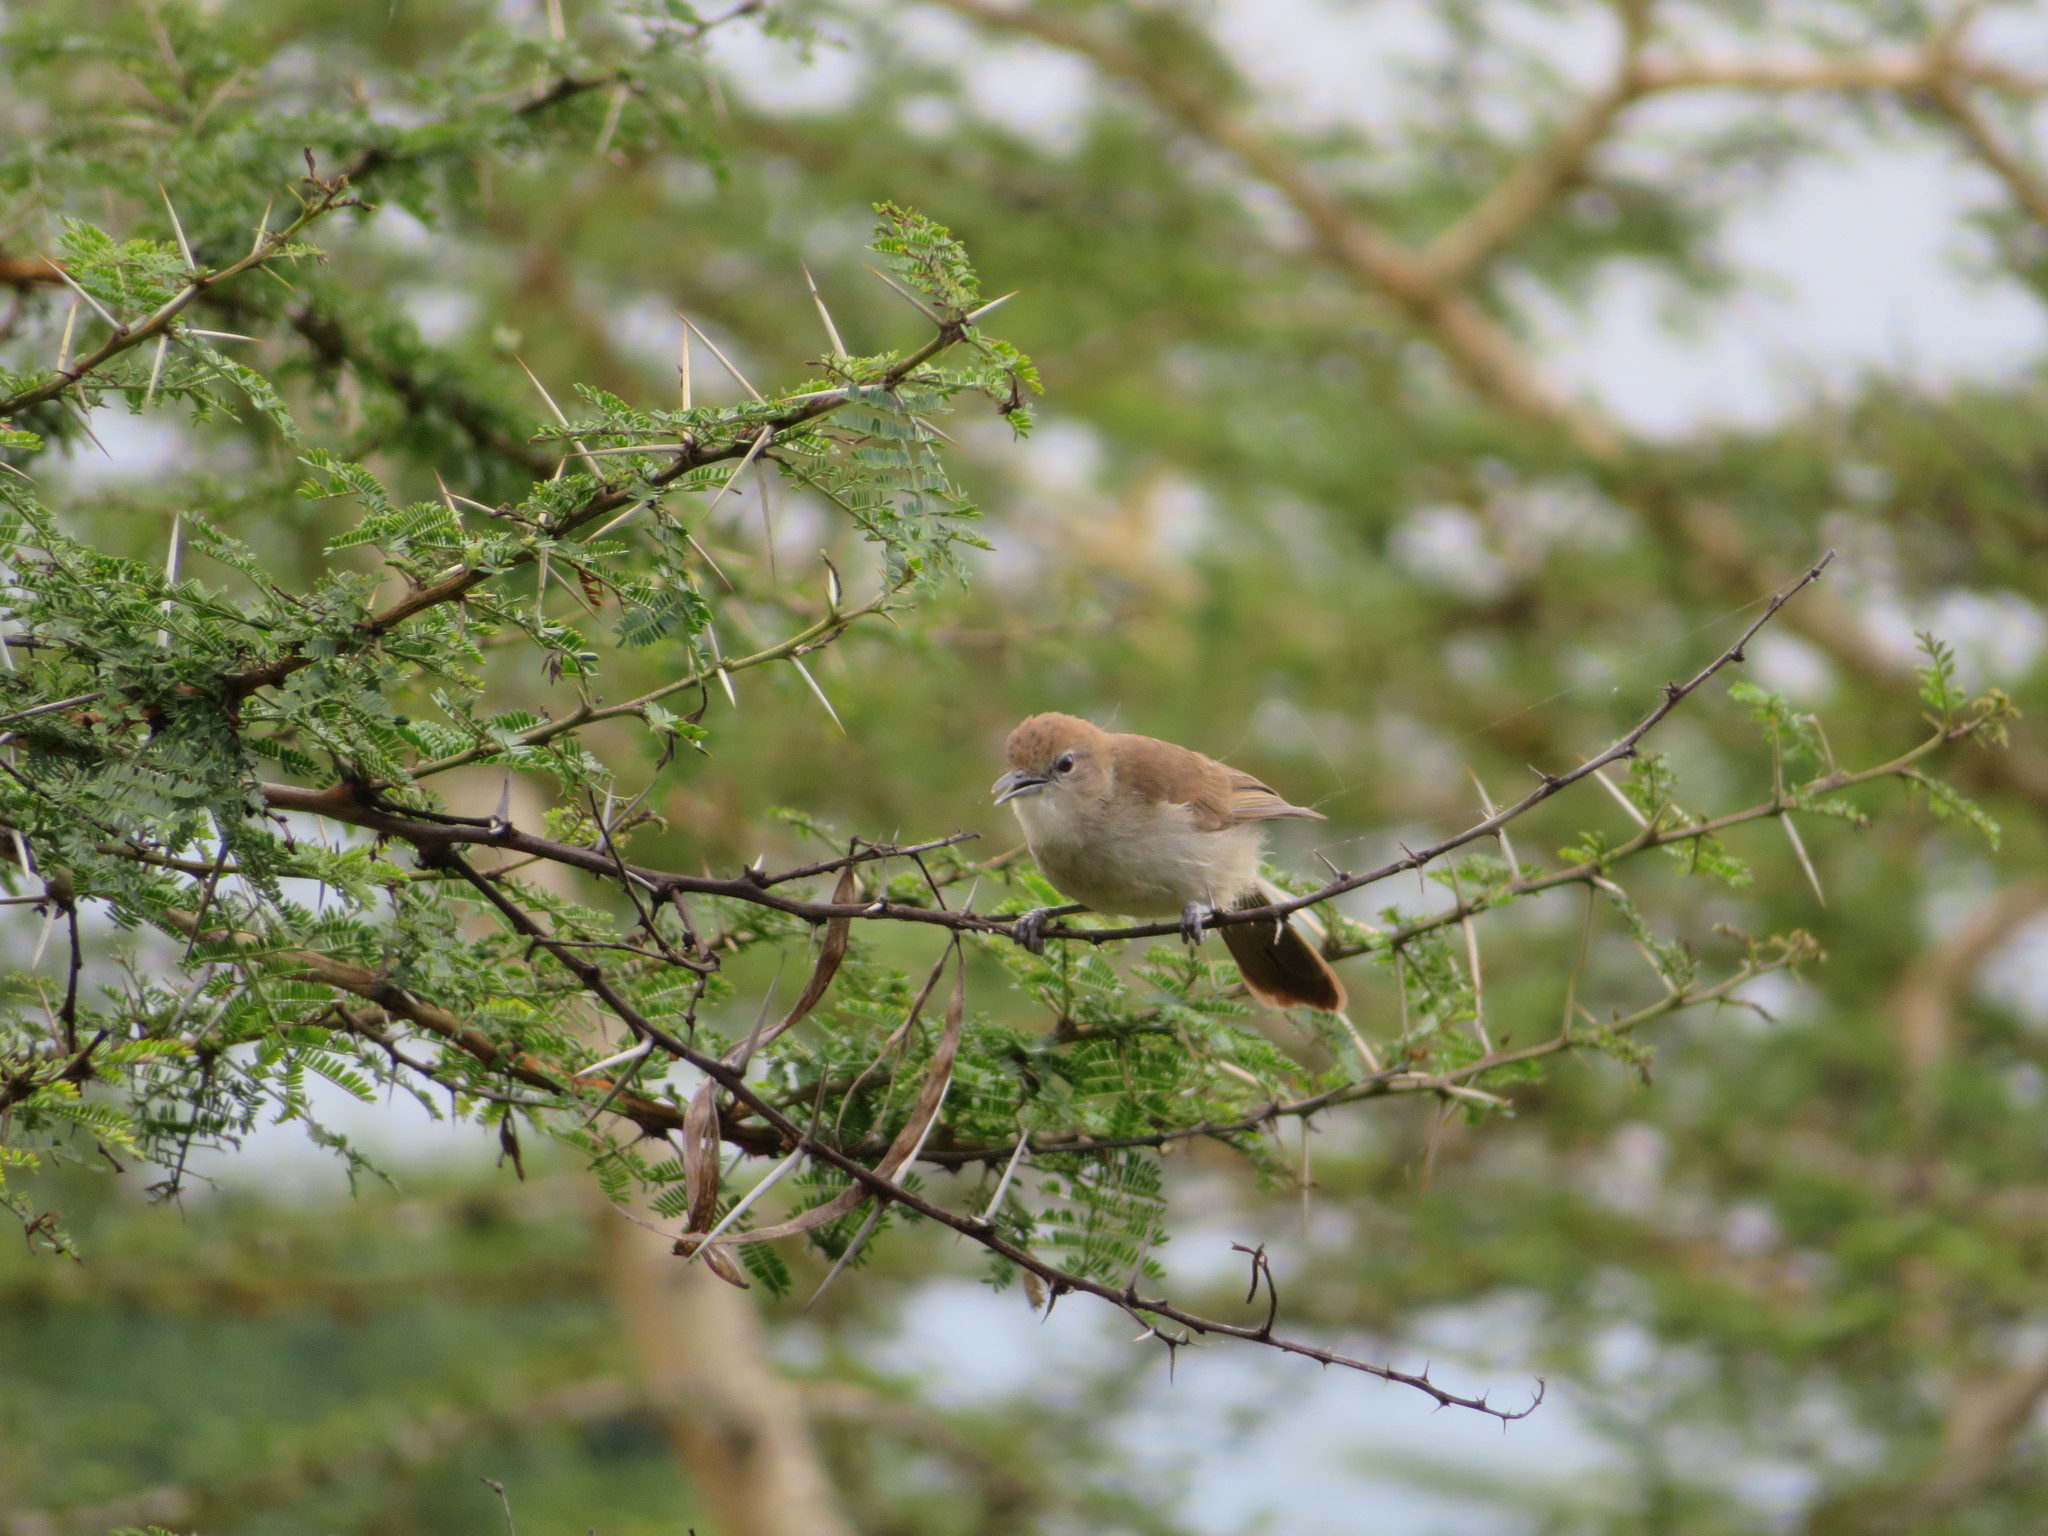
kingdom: Animalia
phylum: Chordata
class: Aves
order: Passeriformes
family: Pycnonotidae
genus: Phyllastrephus
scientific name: Phyllastrephus strepitans
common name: Northern brownbul
